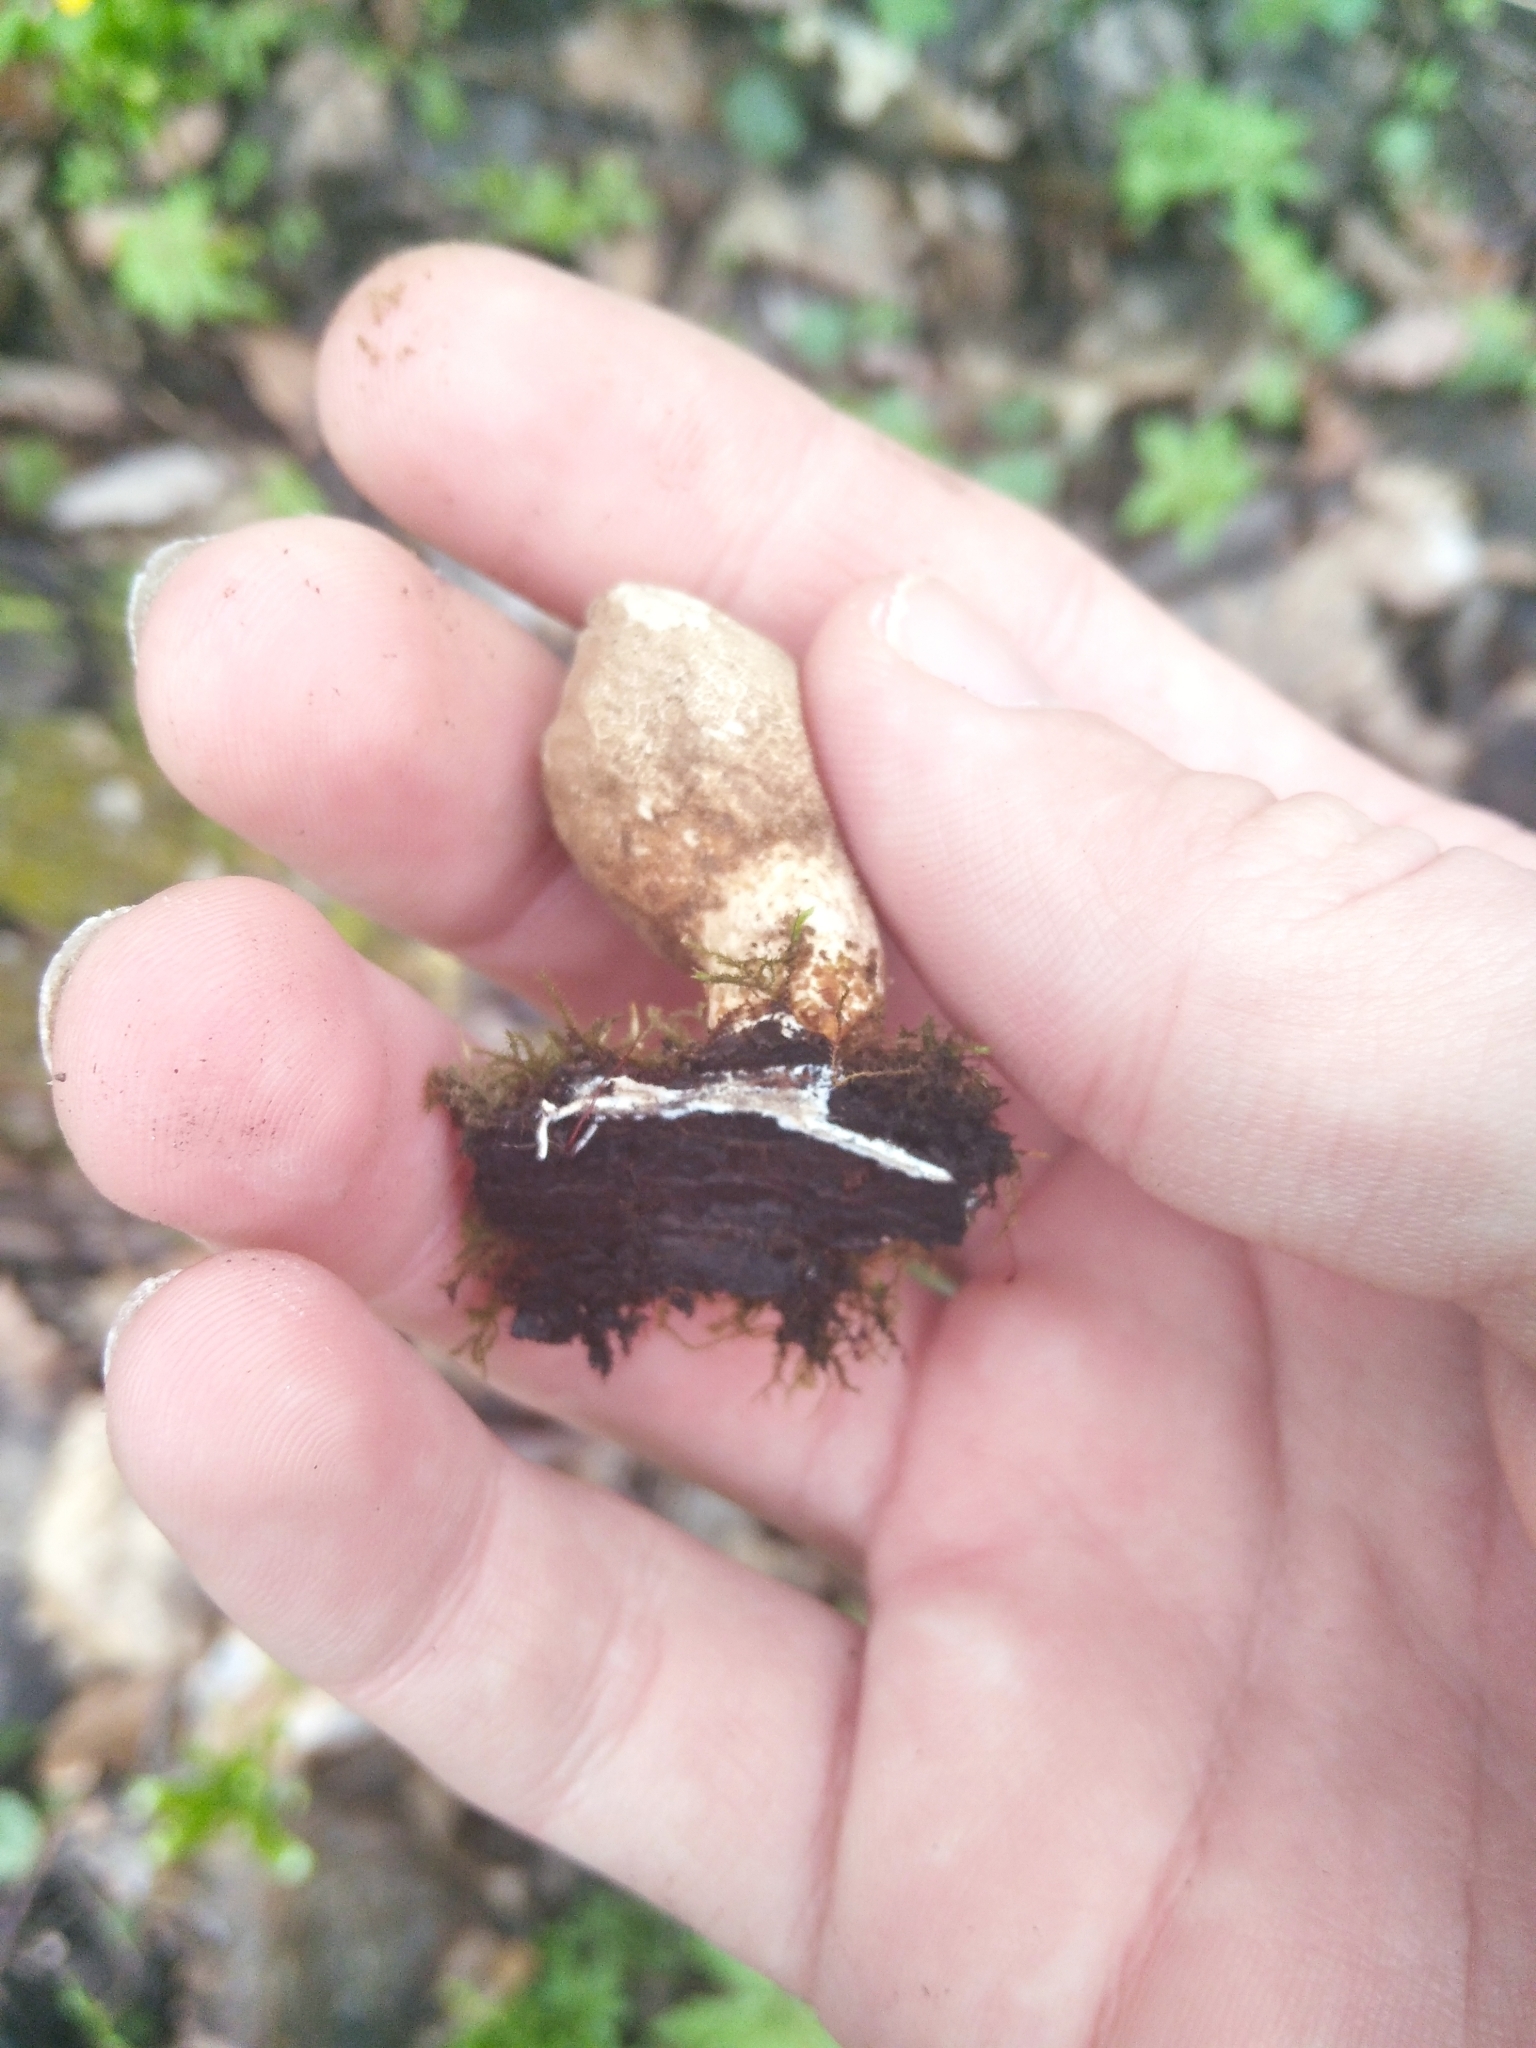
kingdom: Fungi
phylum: Basidiomycota
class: Agaricomycetes
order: Agaricales
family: Lycoperdaceae
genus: Apioperdon
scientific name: Apioperdon pyriforme
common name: Pear-shaped puffball
